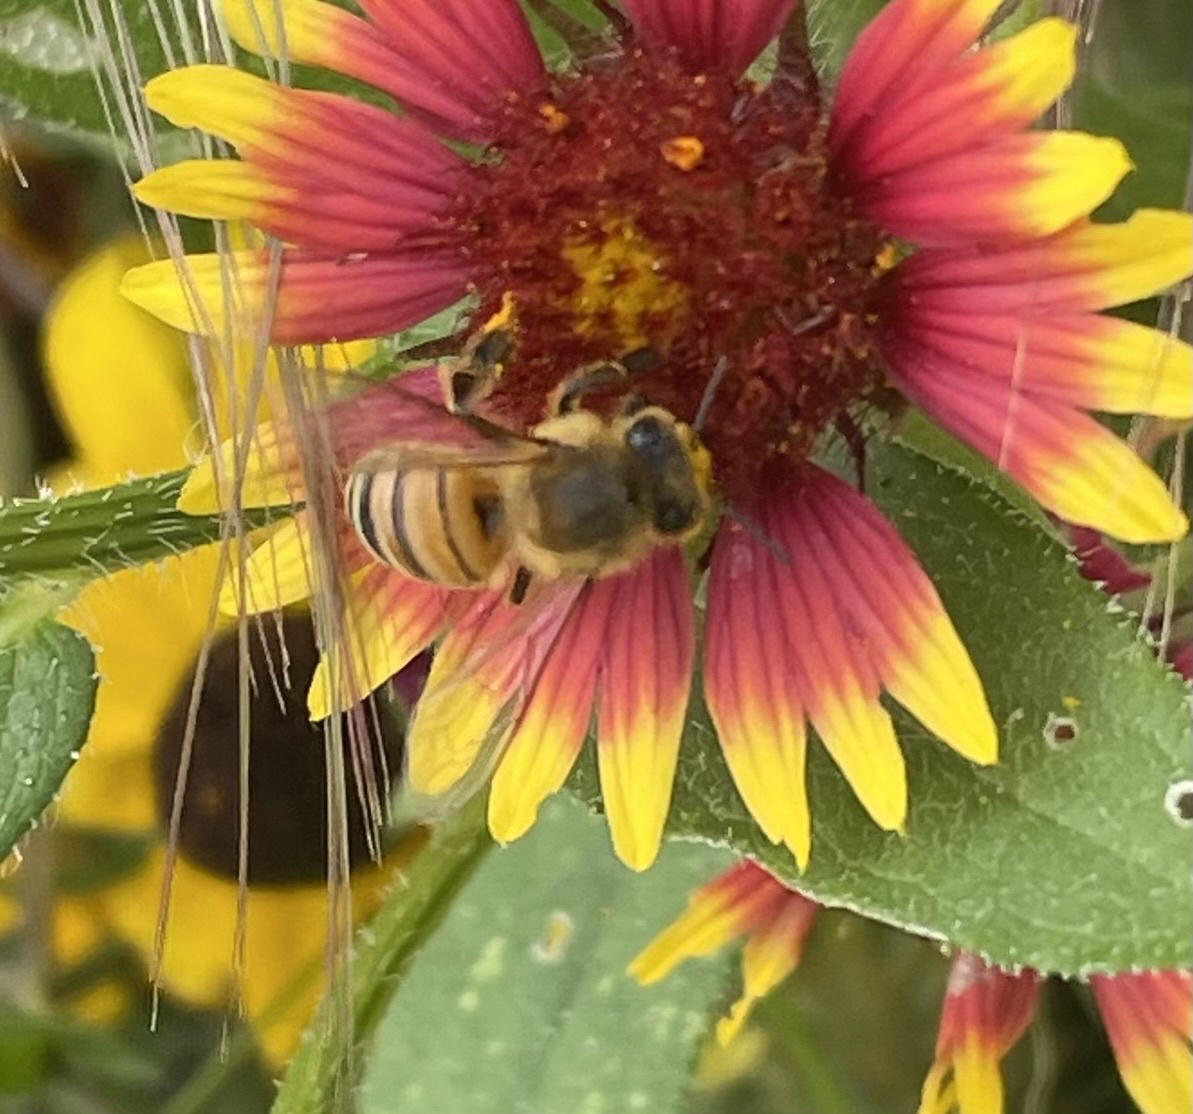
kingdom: Animalia
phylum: Arthropoda
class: Insecta
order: Hymenoptera
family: Apidae
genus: Apis
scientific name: Apis mellifera
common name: Honey bee
